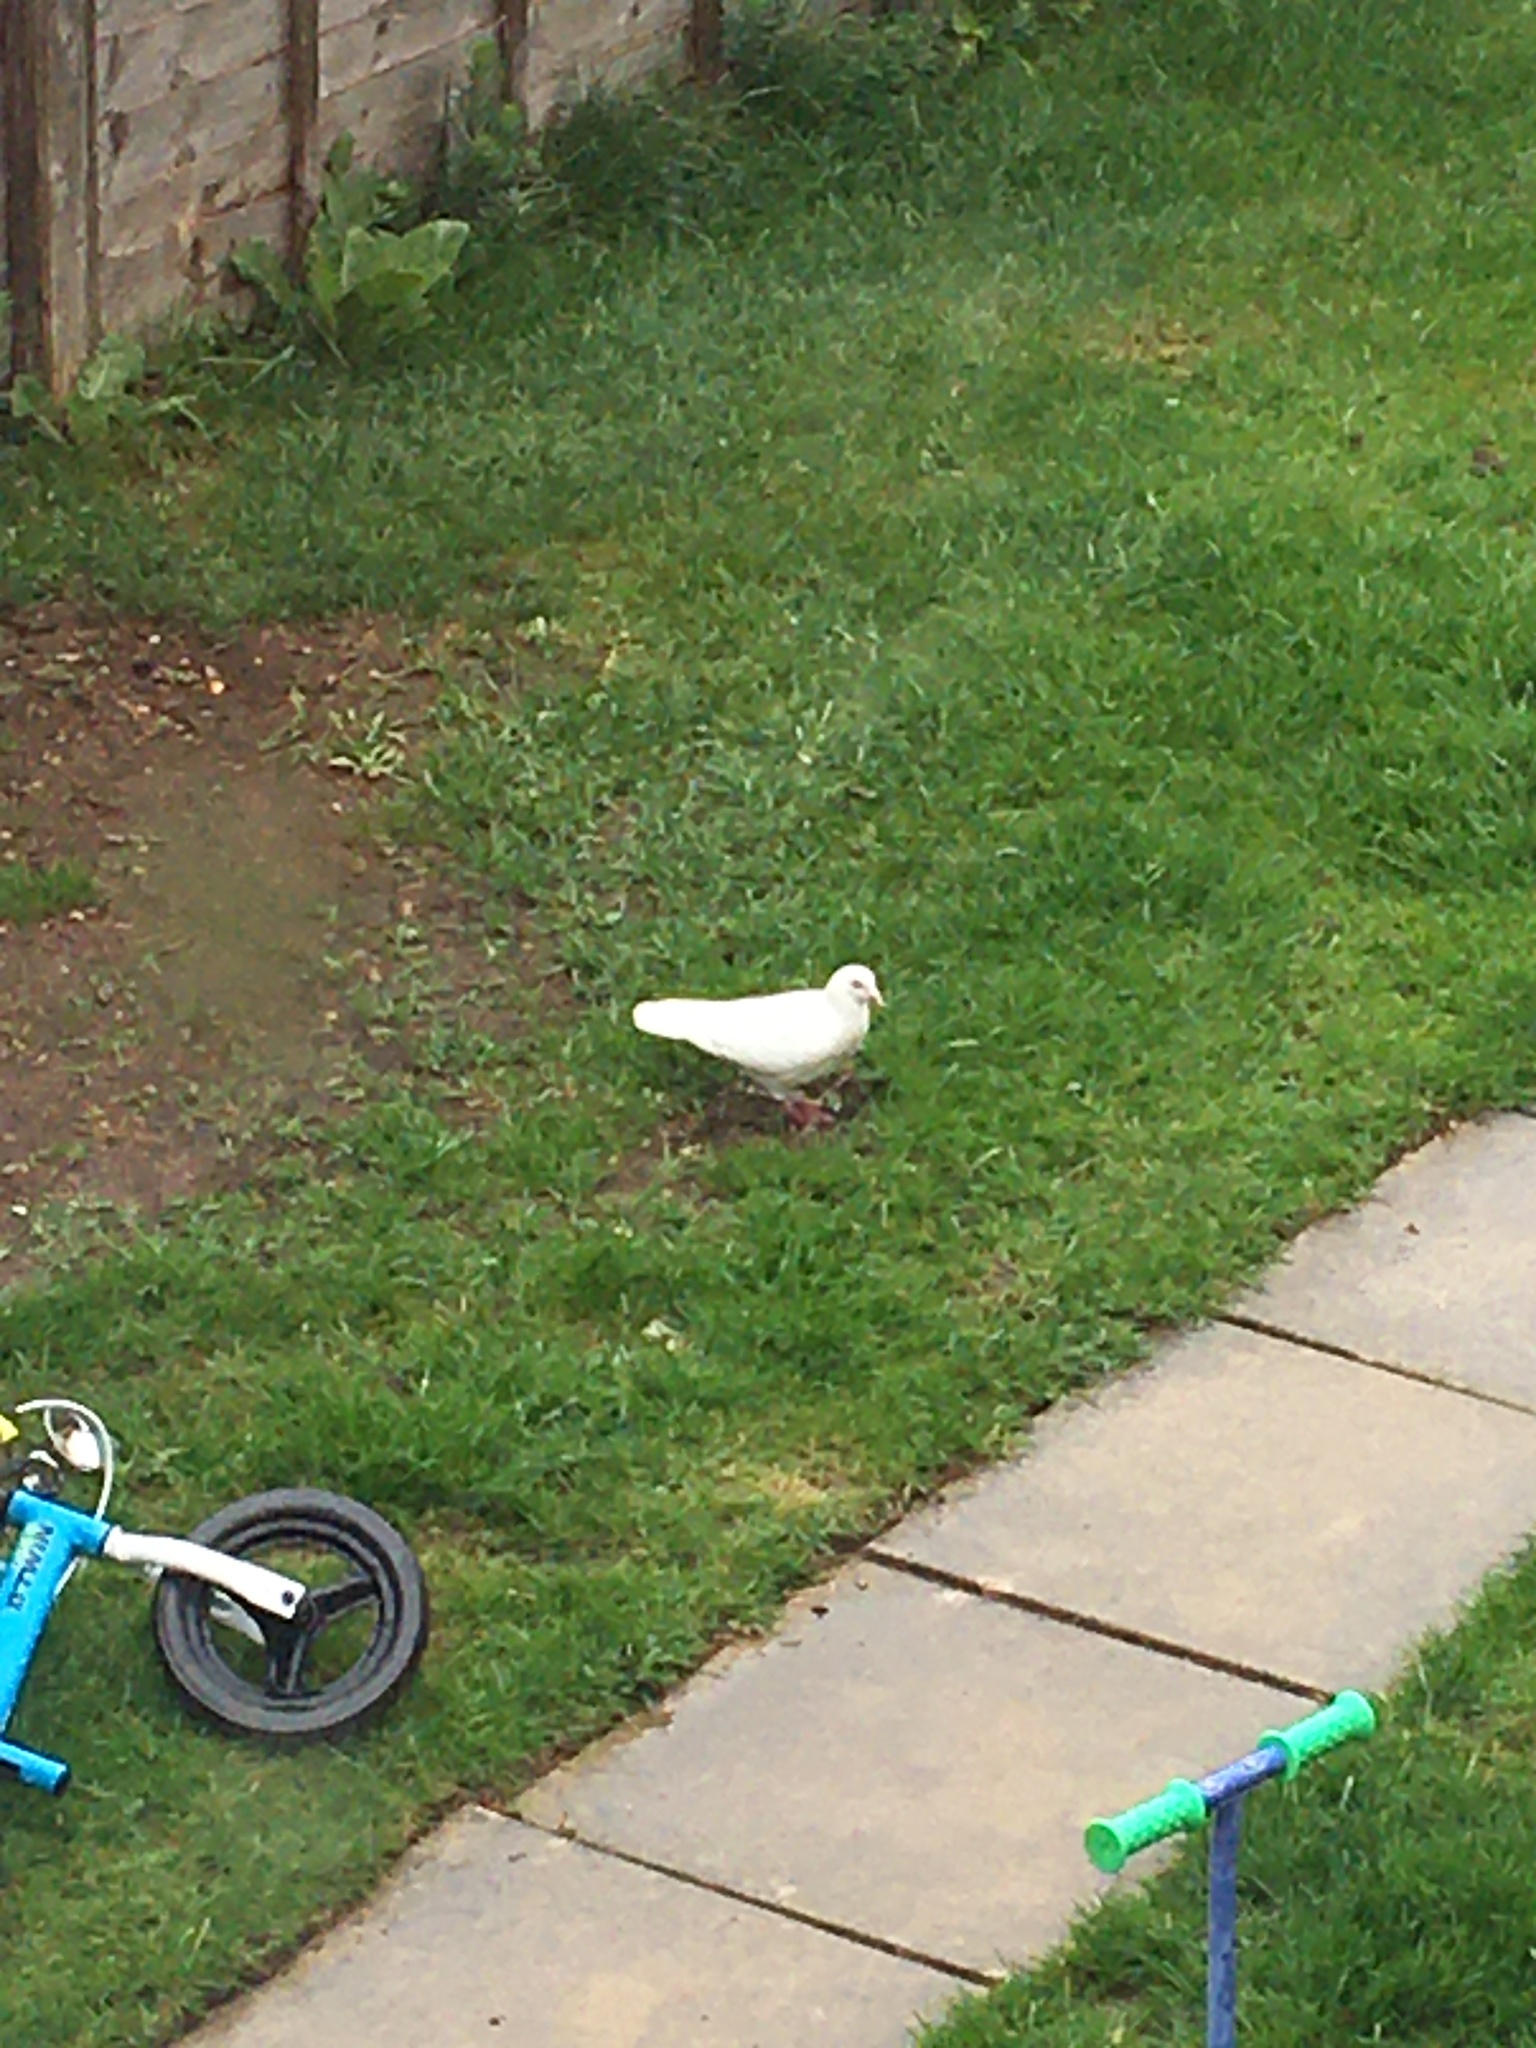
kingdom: Animalia
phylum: Chordata
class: Aves
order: Columbiformes
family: Columbidae
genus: Columba
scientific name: Columba livia
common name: Rock pigeon
